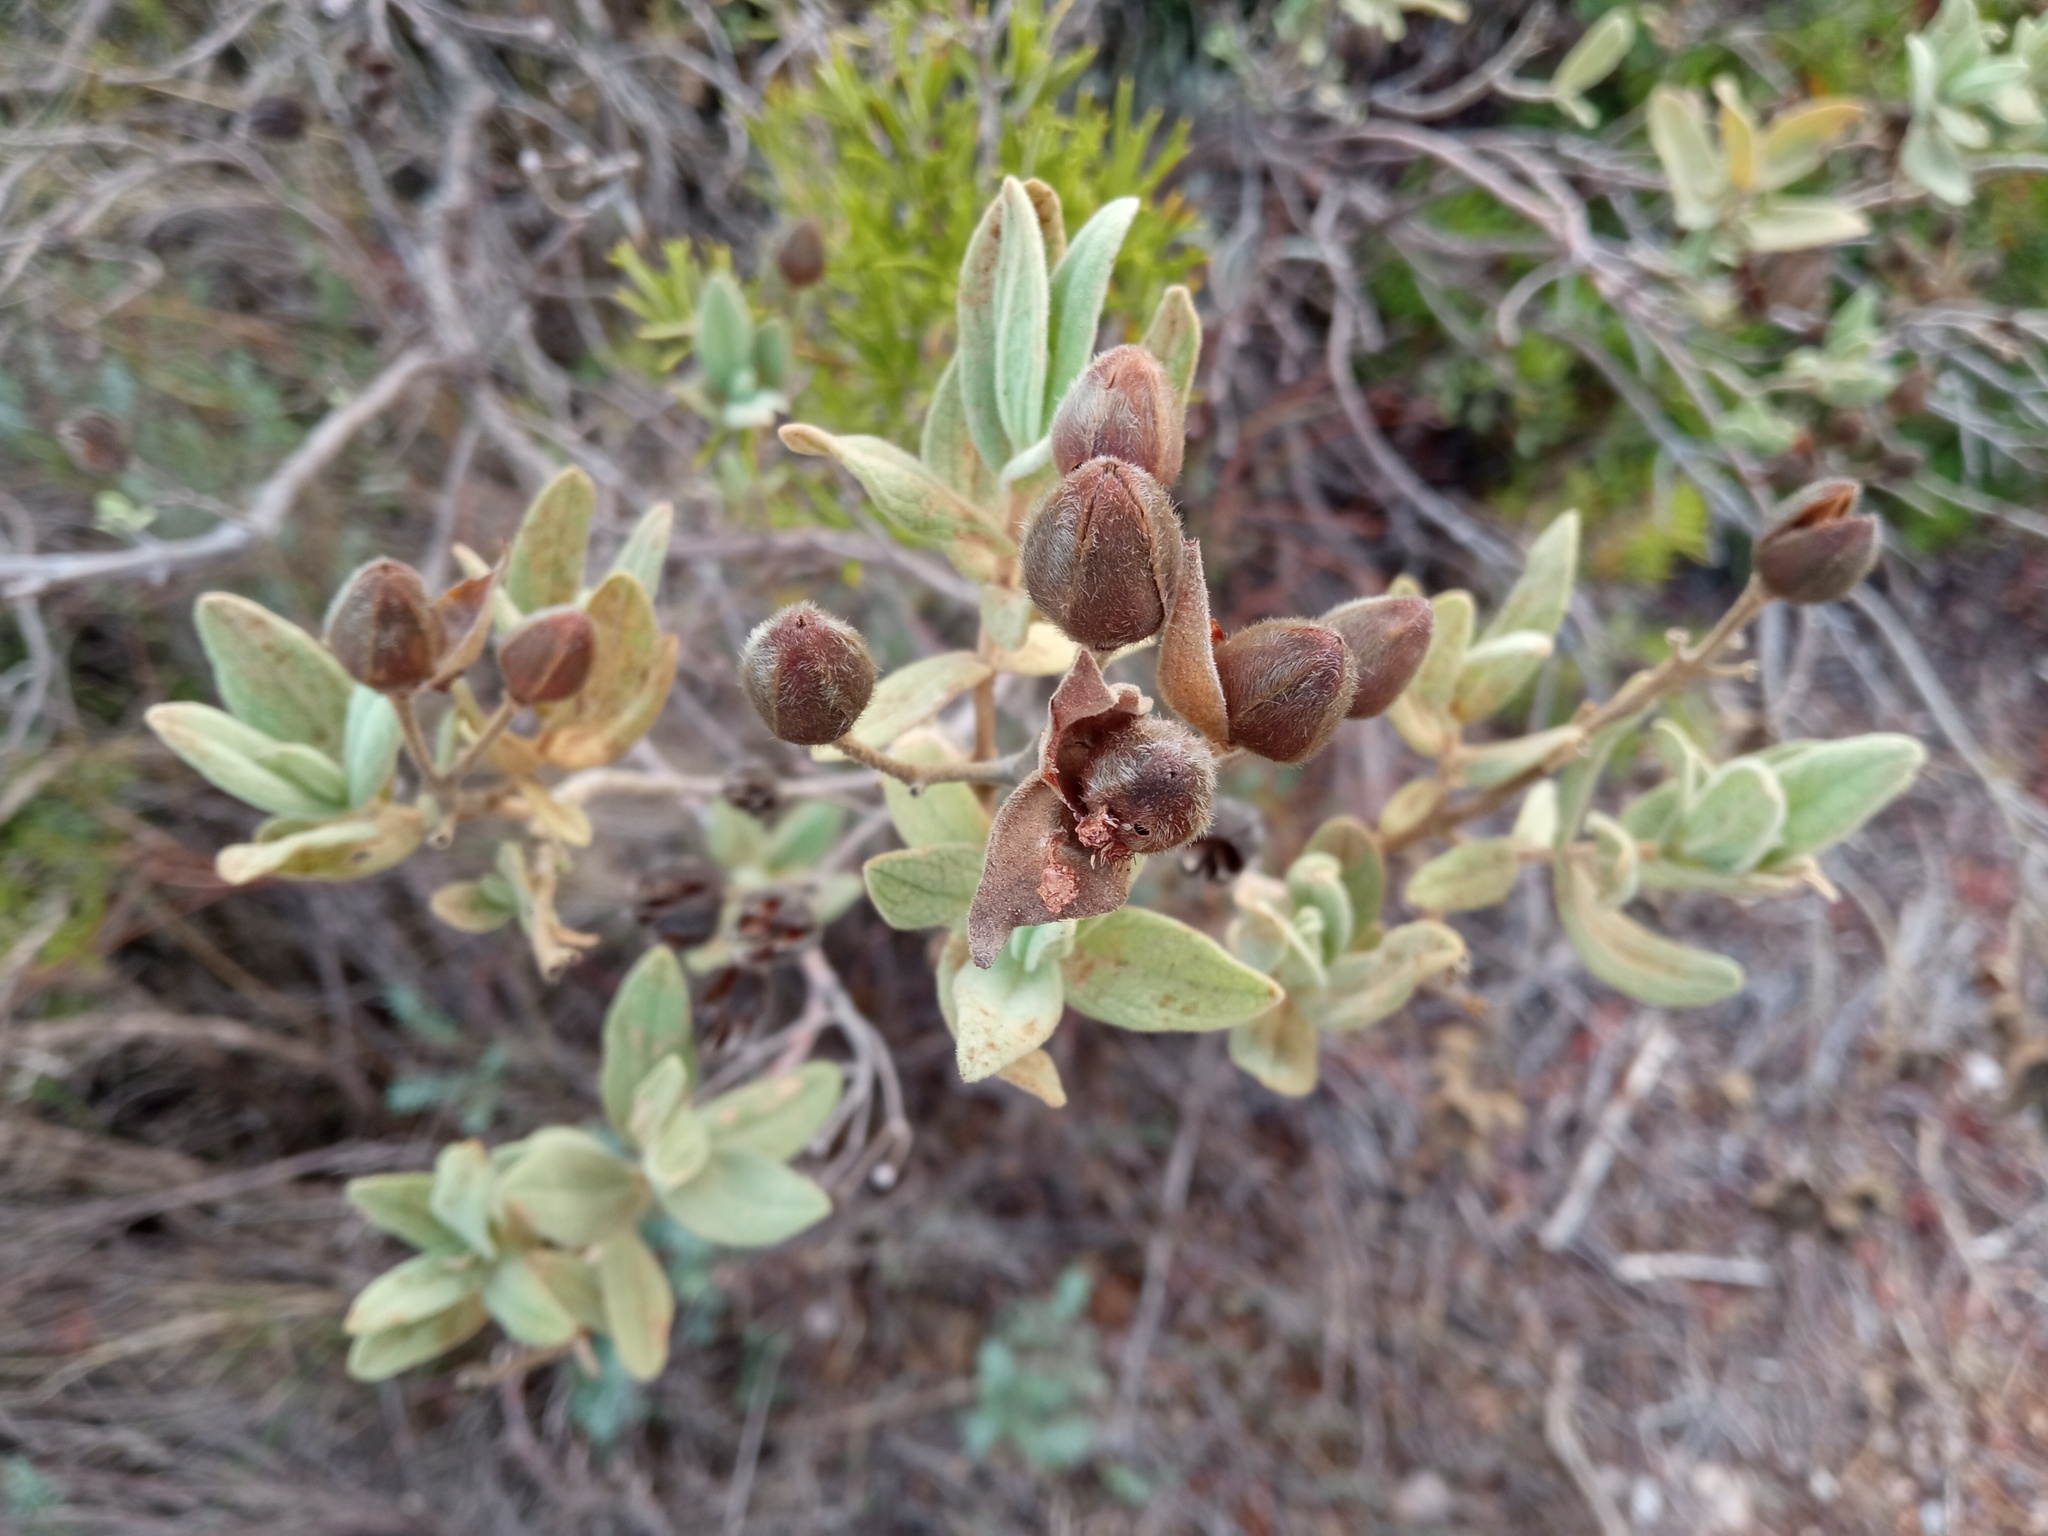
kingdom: Plantae
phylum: Tracheophyta
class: Magnoliopsida
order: Malvales
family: Cistaceae
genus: Cistus
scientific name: Cistus albidus
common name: White-leaf rock-rose
